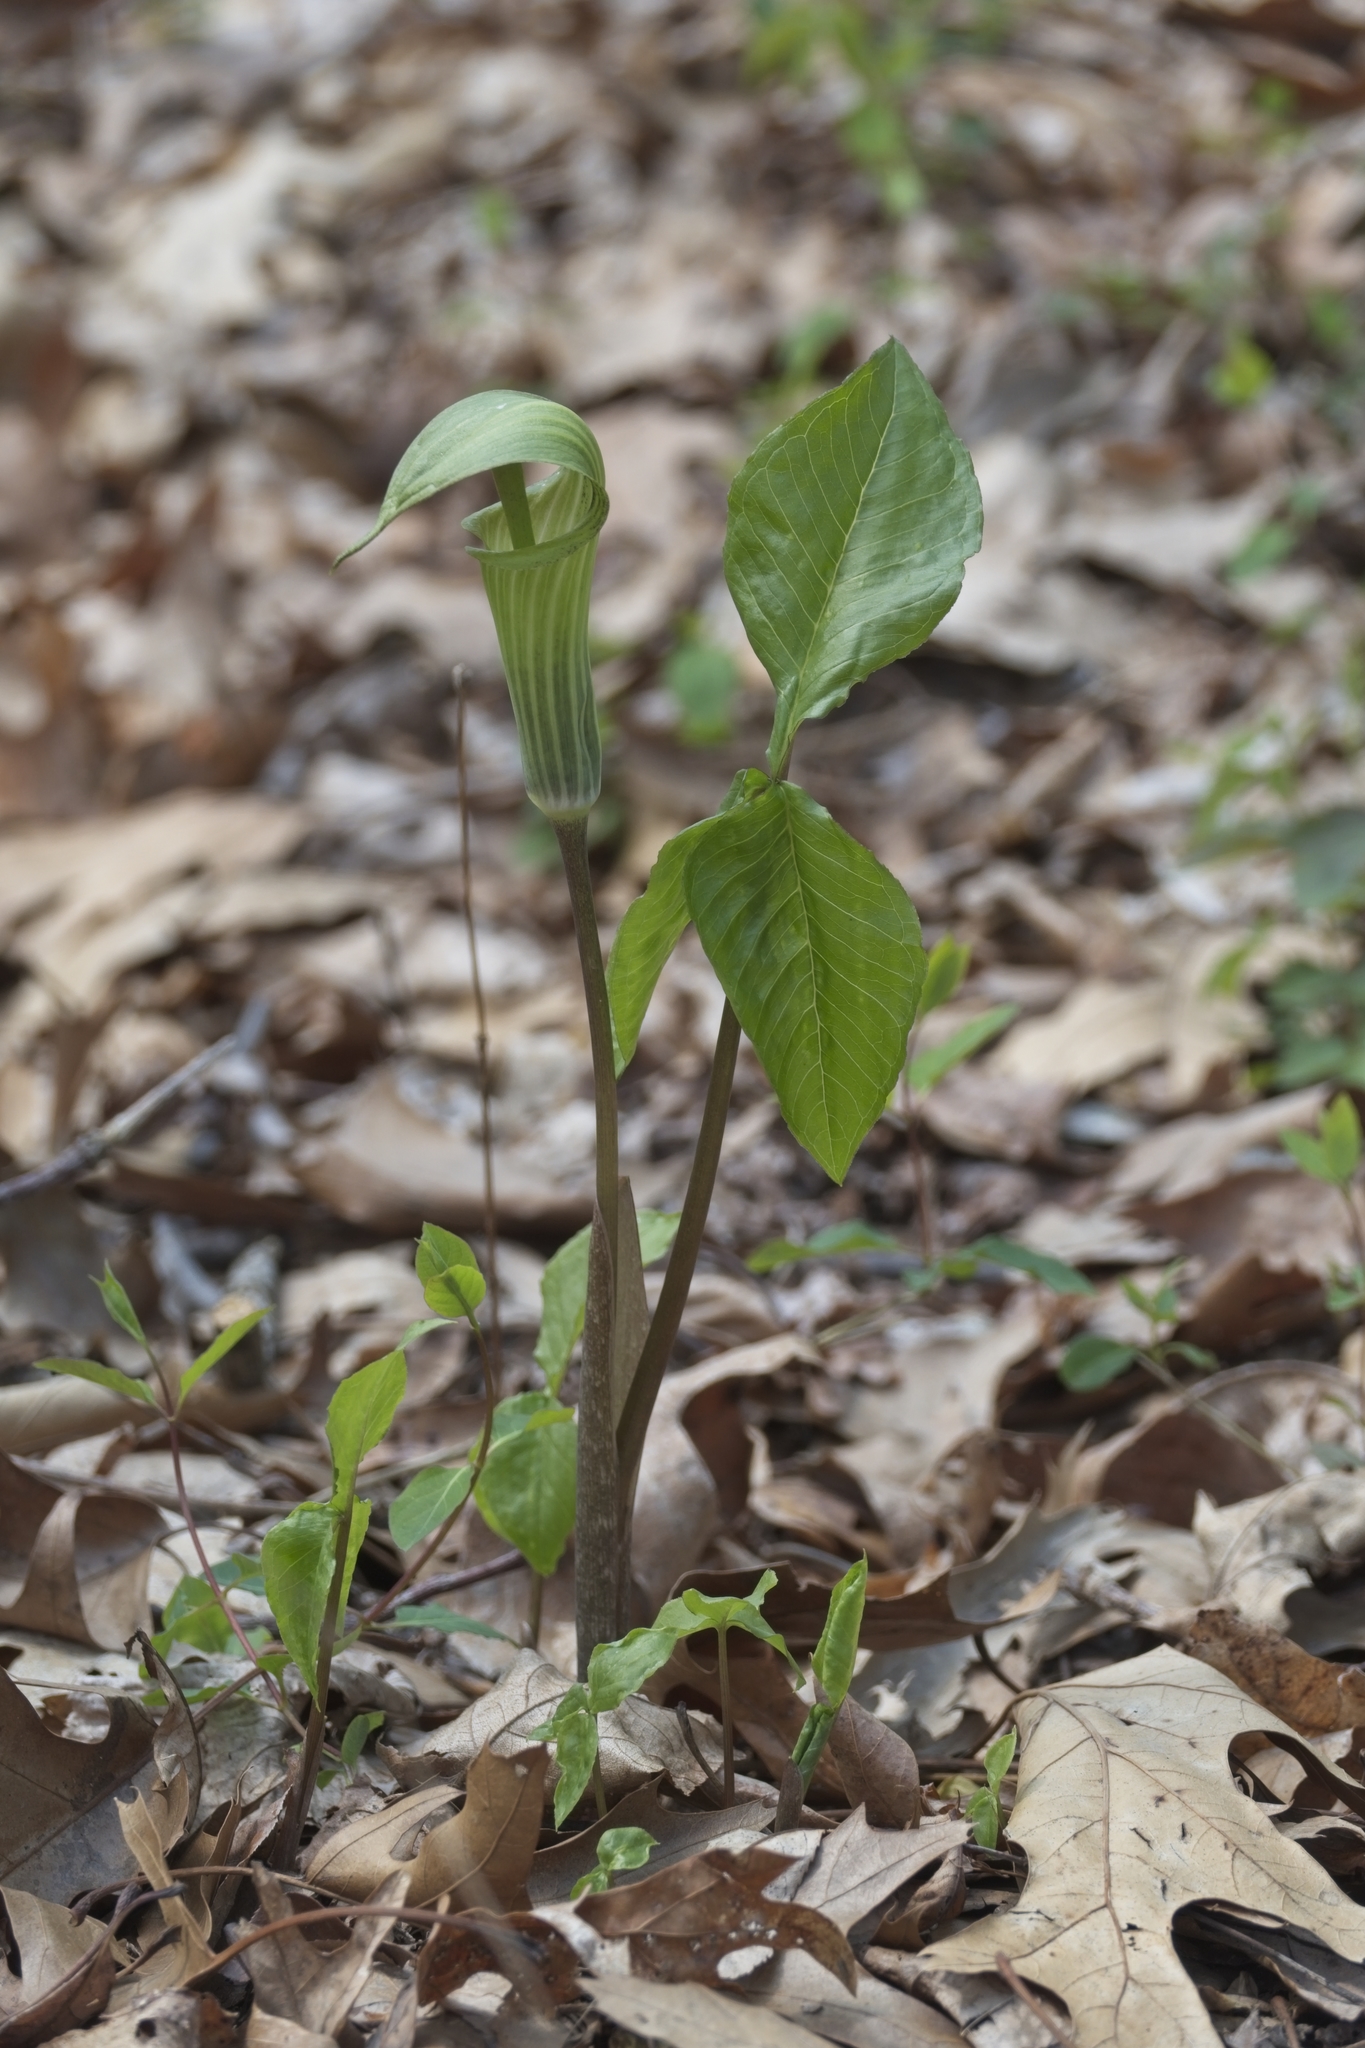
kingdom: Plantae
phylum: Tracheophyta
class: Liliopsida
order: Alismatales
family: Araceae
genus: Arisaema
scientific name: Arisaema triphyllum
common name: Jack-in-the-pulpit
